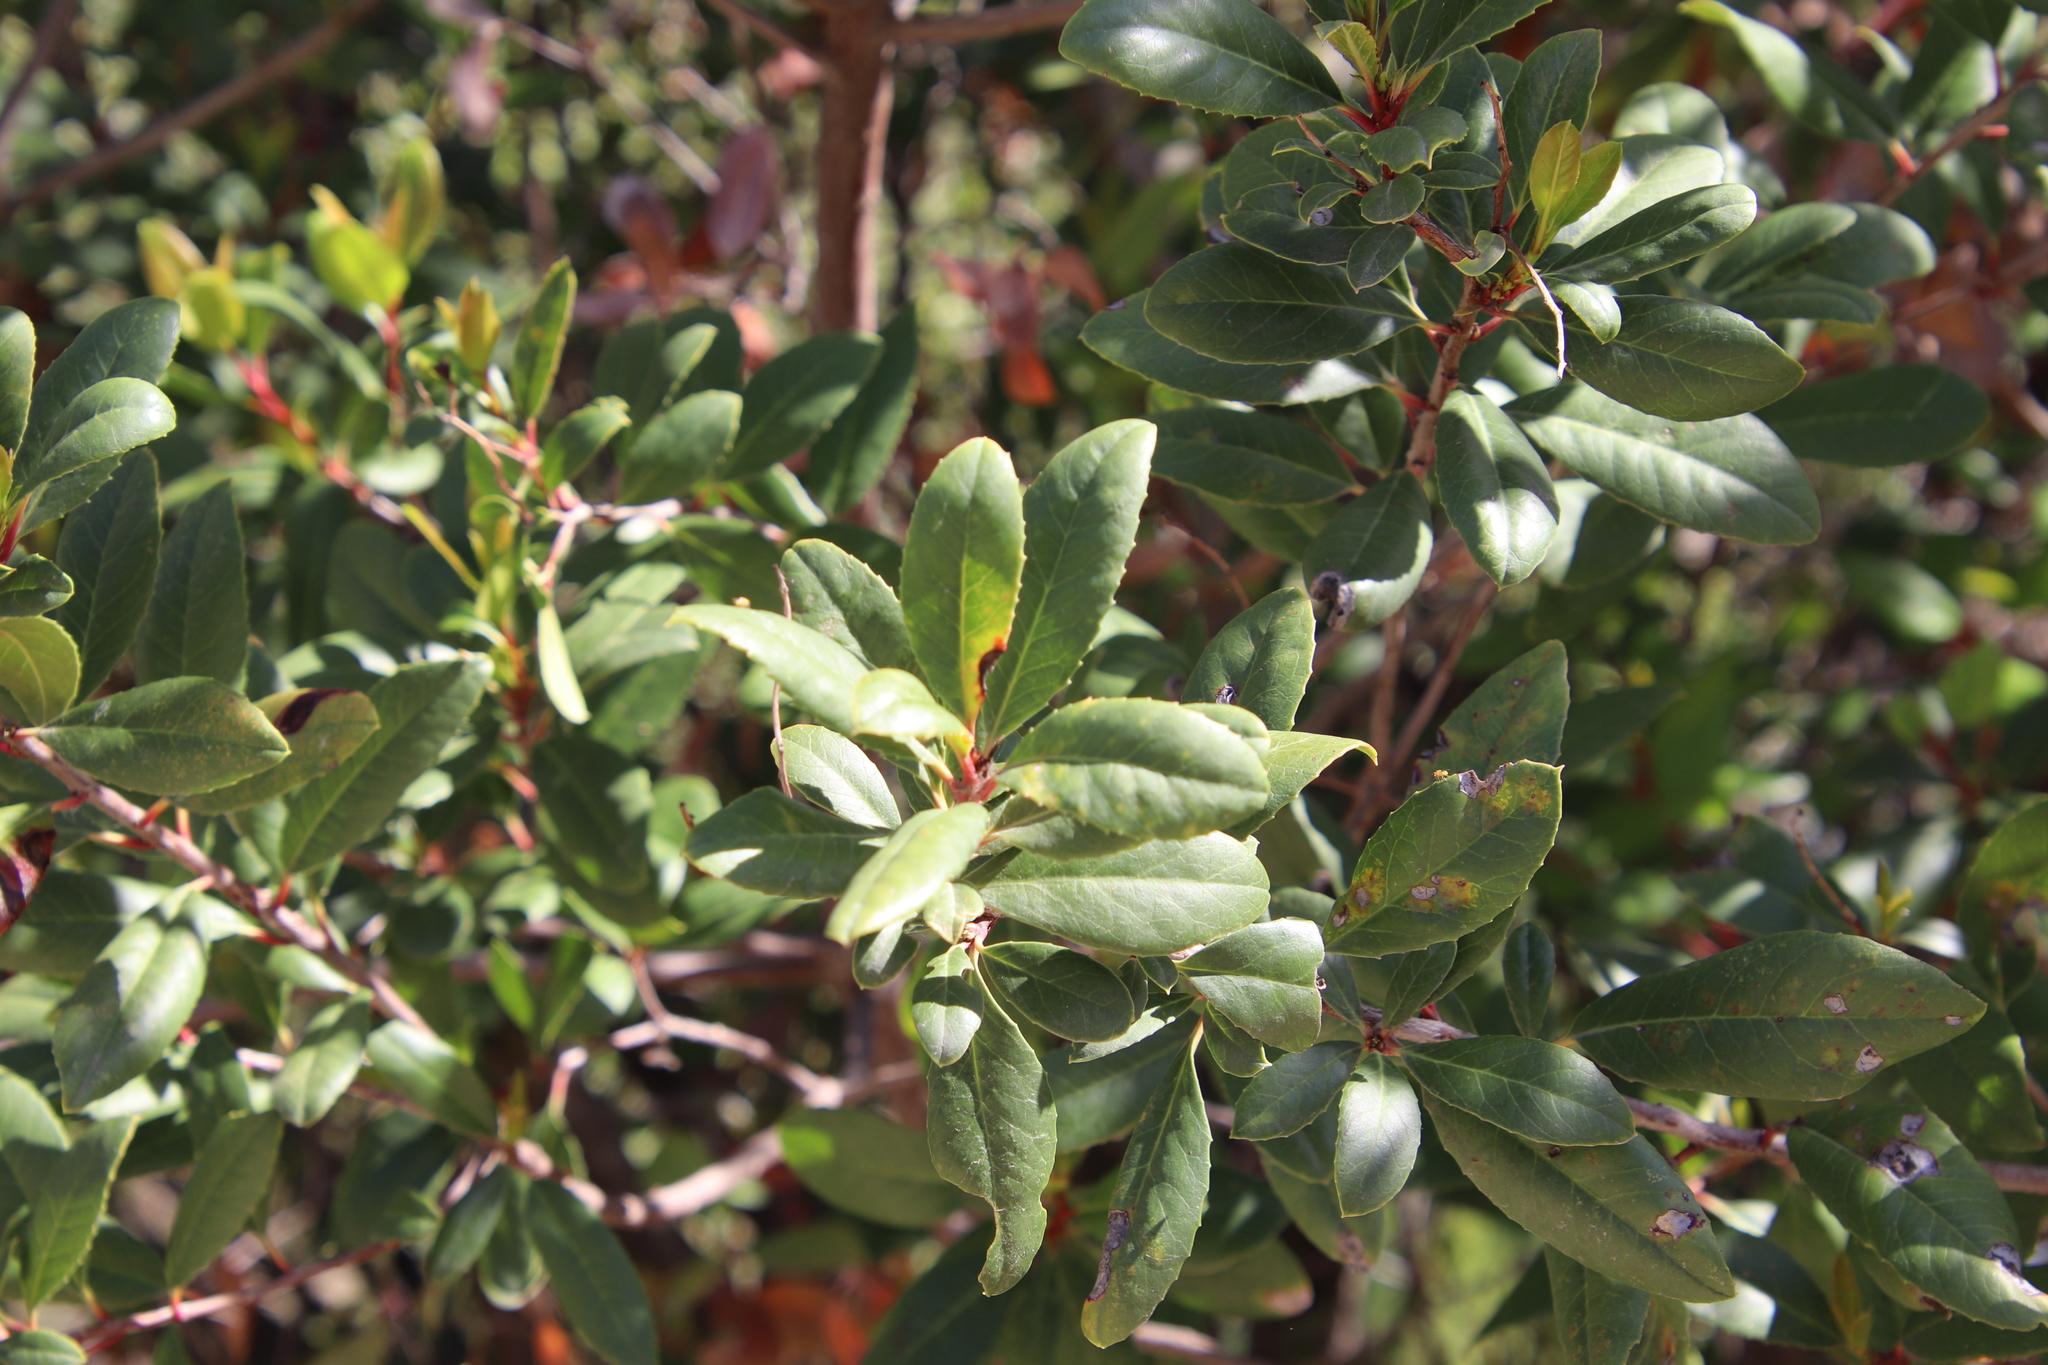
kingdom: Plantae
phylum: Tracheophyta
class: Magnoliopsida
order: Rosales
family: Rosaceae
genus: Heteromeles
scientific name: Heteromeles arbutifolia
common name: California-holly
